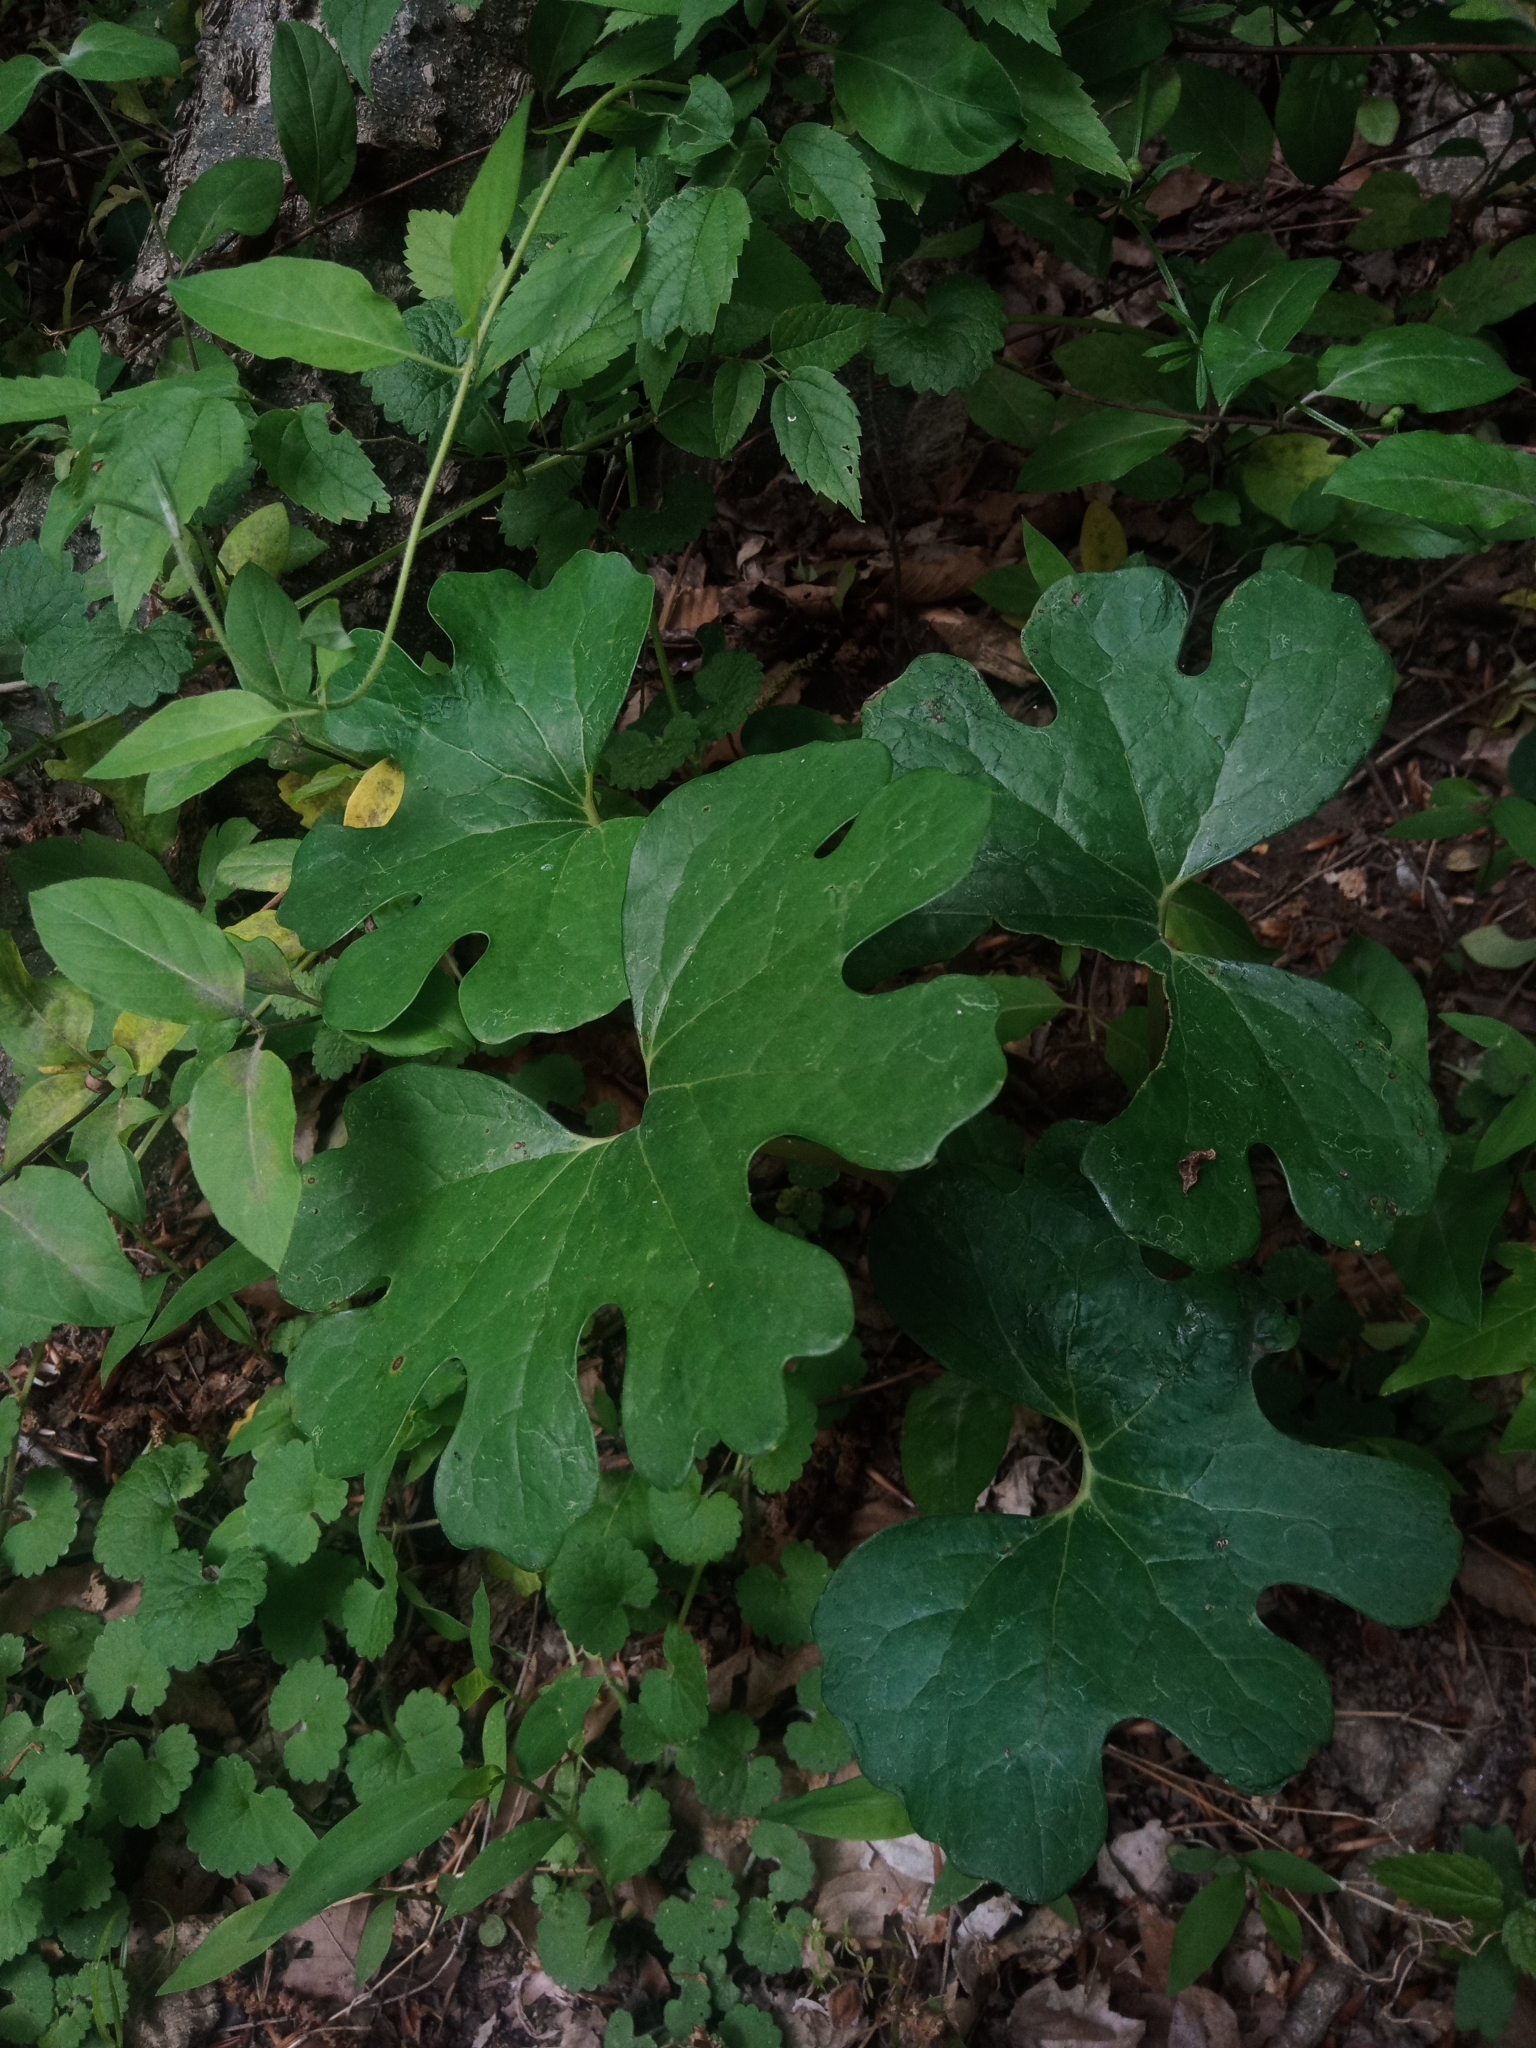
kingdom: Plantae
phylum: Tracheophyta
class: Magnoliopsida
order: Ranunculales
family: Papaveraceae
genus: Sanguinaria
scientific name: Sanguinaria canadensis
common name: Bloodroot
